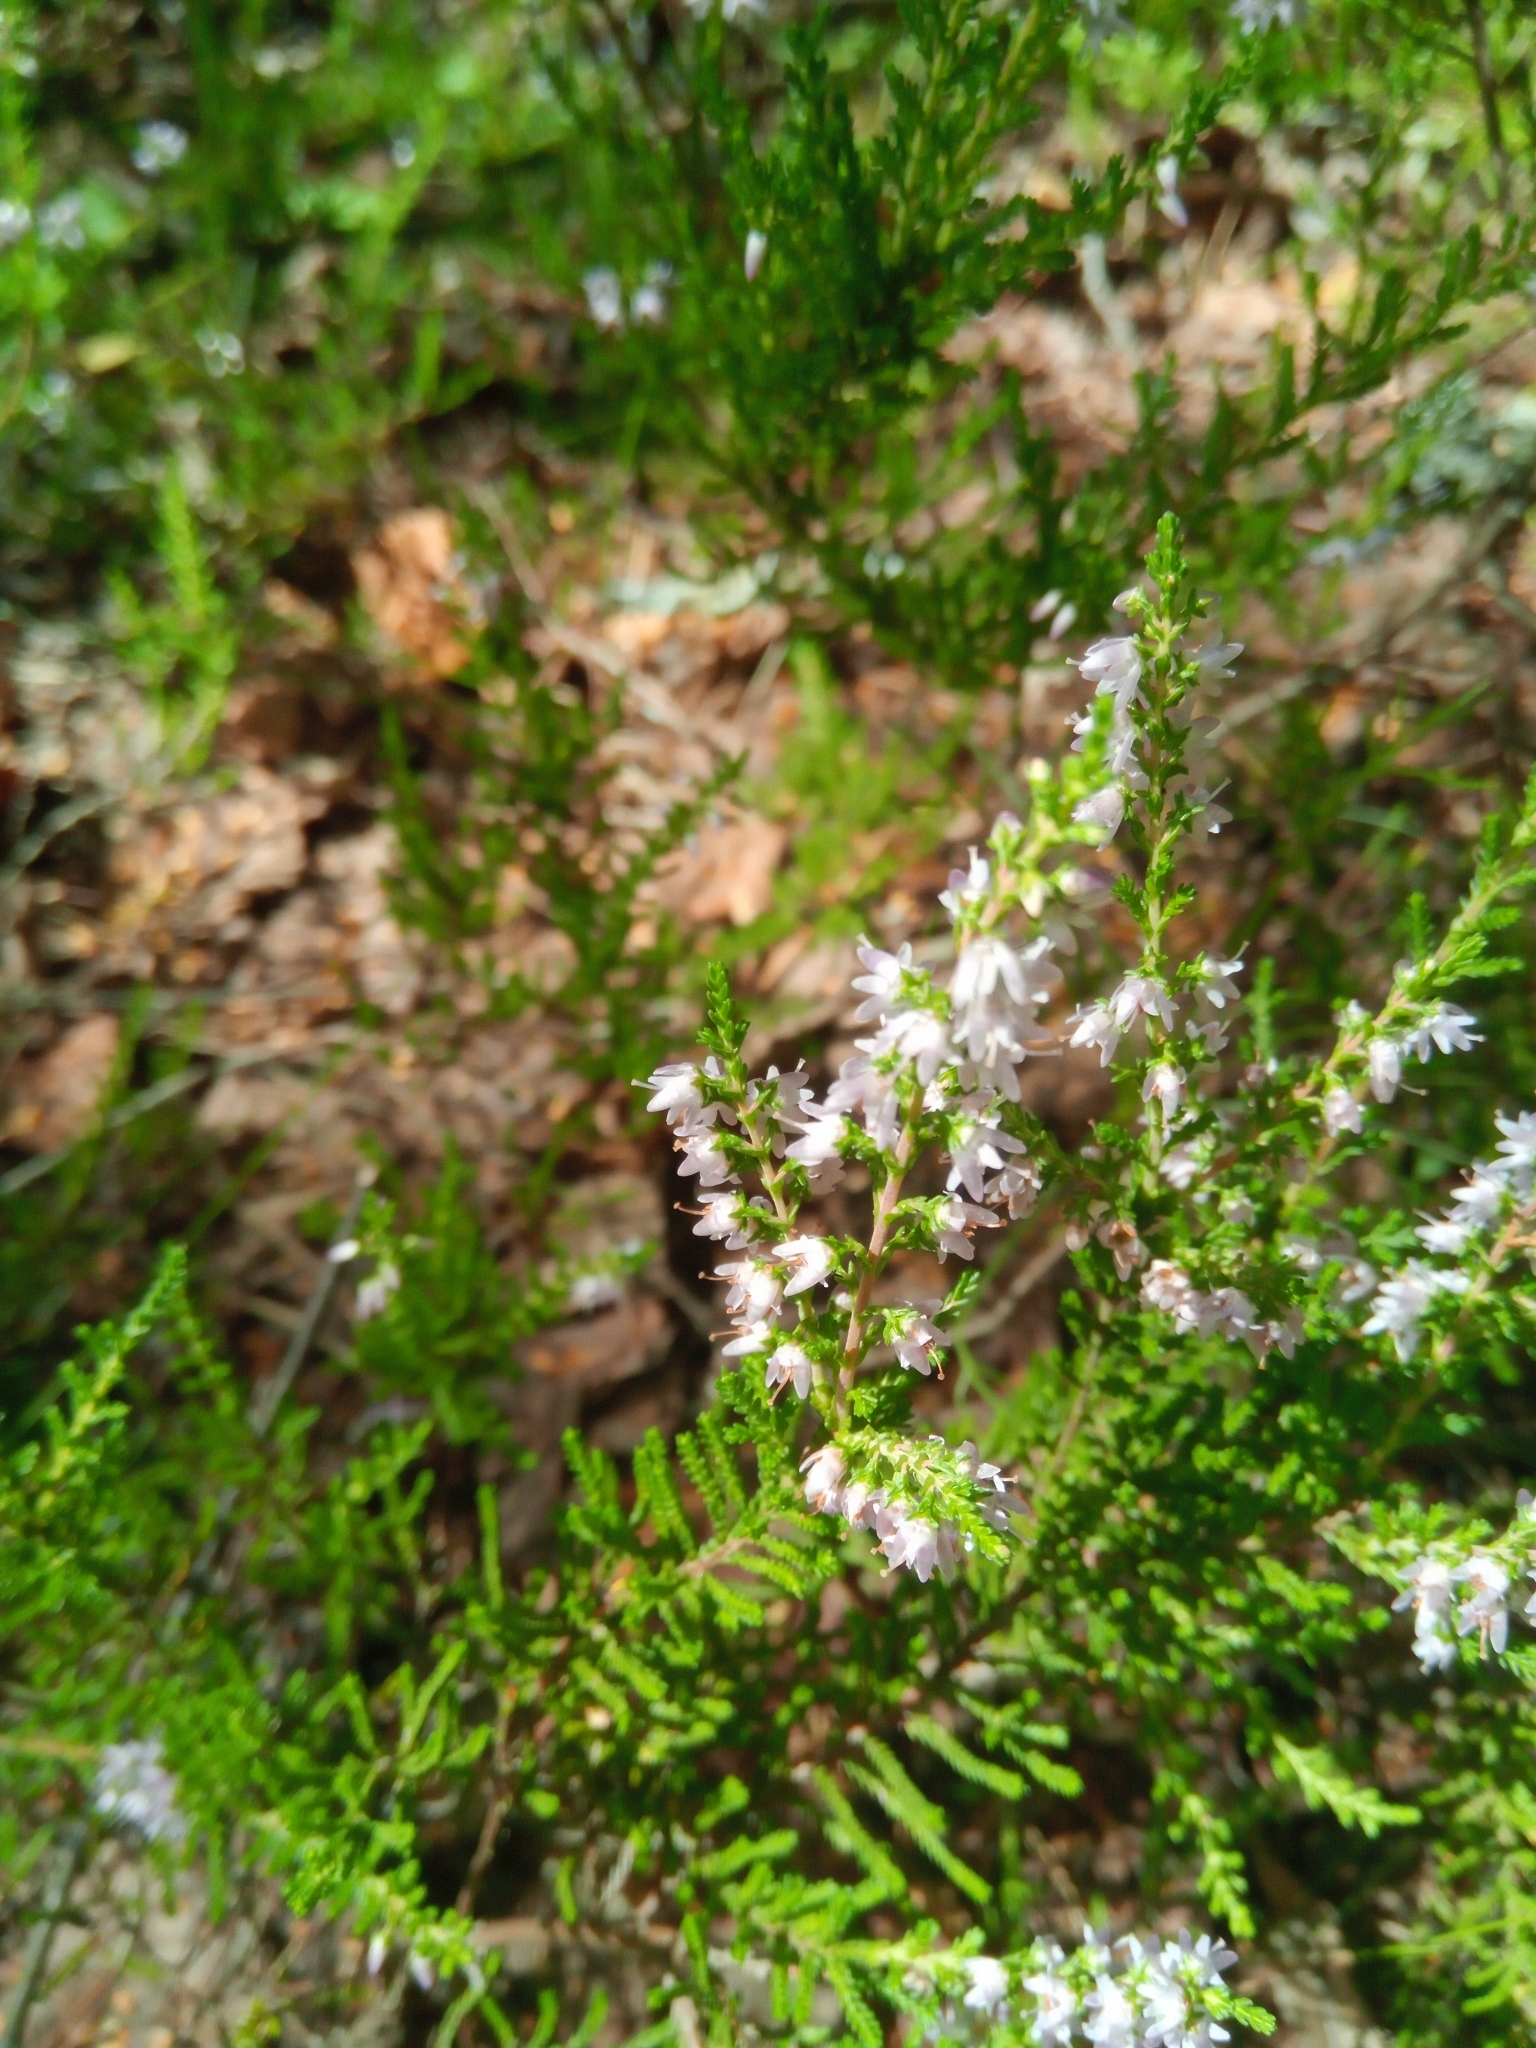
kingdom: Plantae
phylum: Tracheophyta
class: Magnoliopsida
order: Ericales
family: Ericaceae
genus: Calluna
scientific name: Calluna vulgaris
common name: Heather
